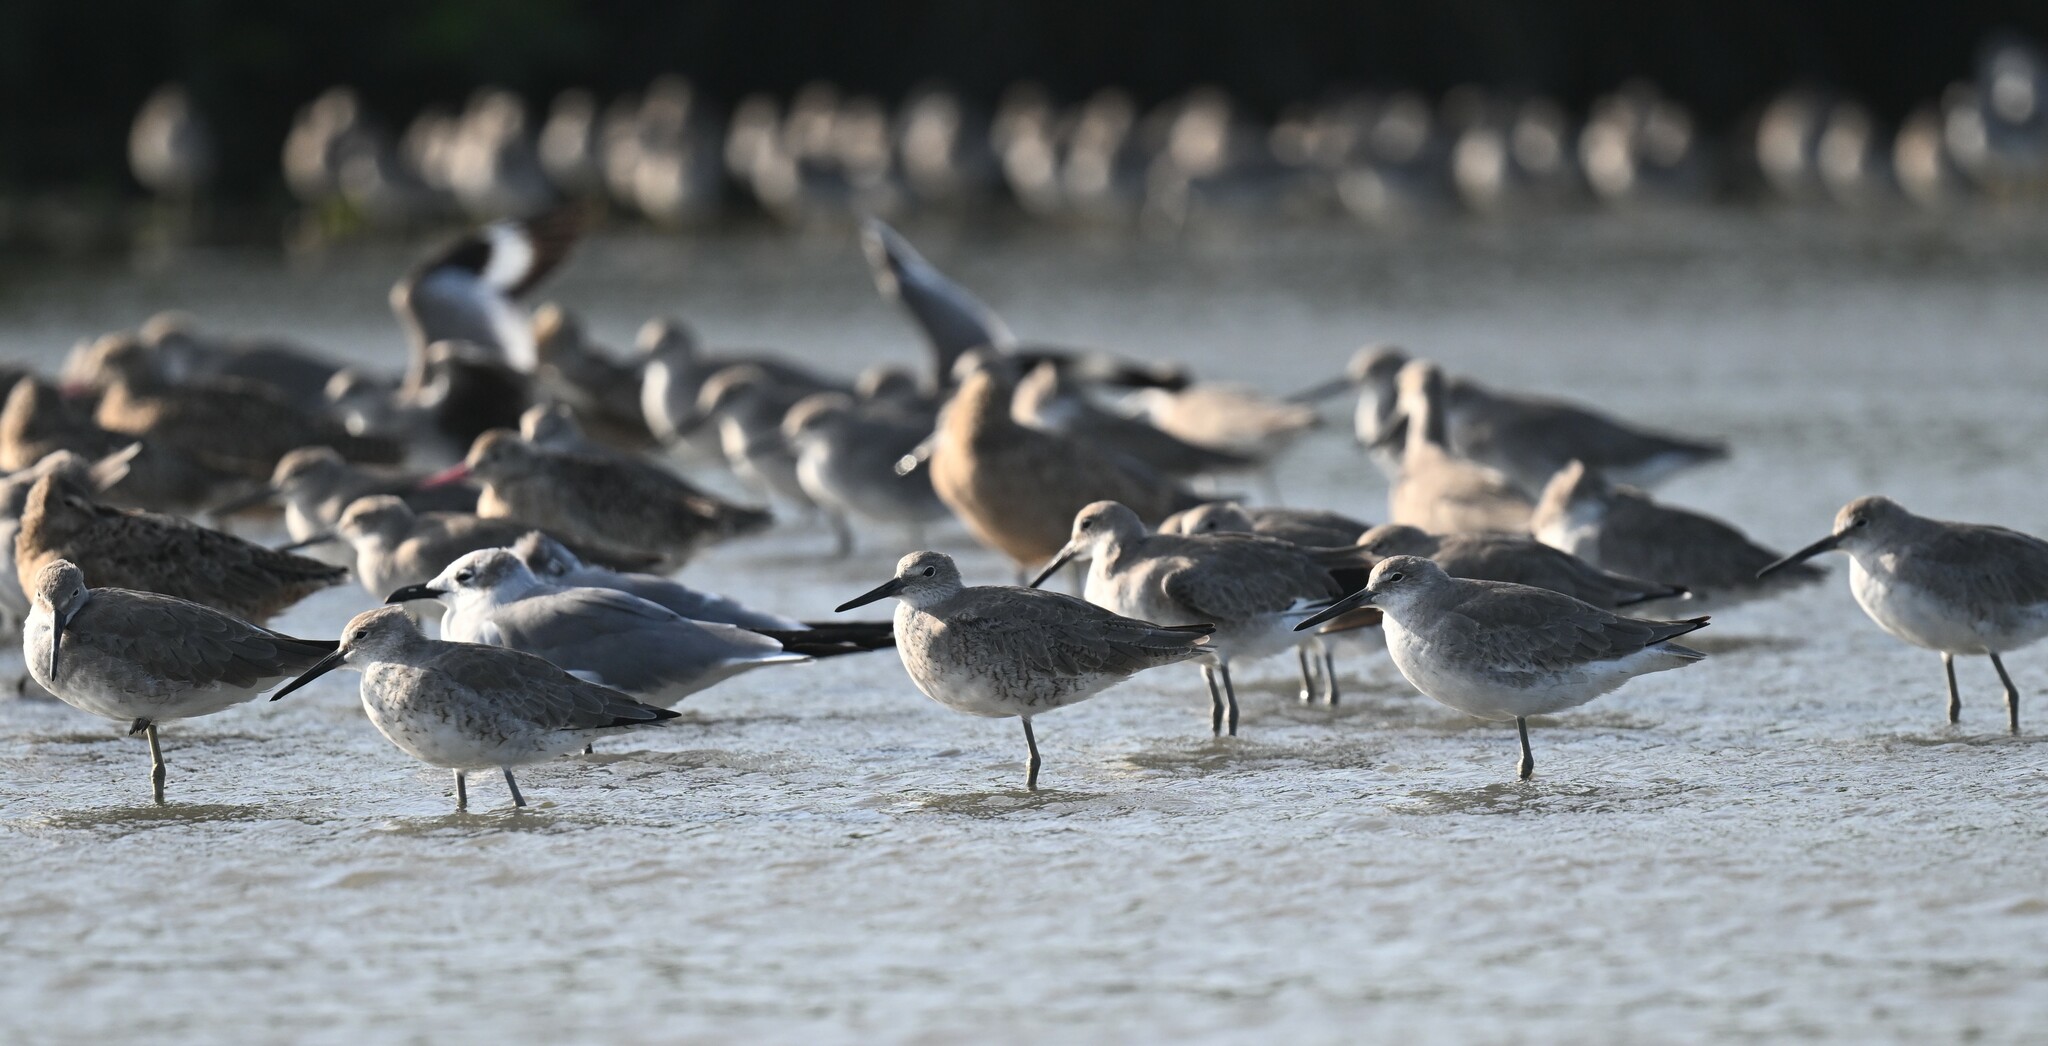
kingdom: Animalia
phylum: Chordata
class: Aves
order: Charadriiformes
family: Scolopacidae
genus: Tringa
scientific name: Tringa semipalmata
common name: Willet
